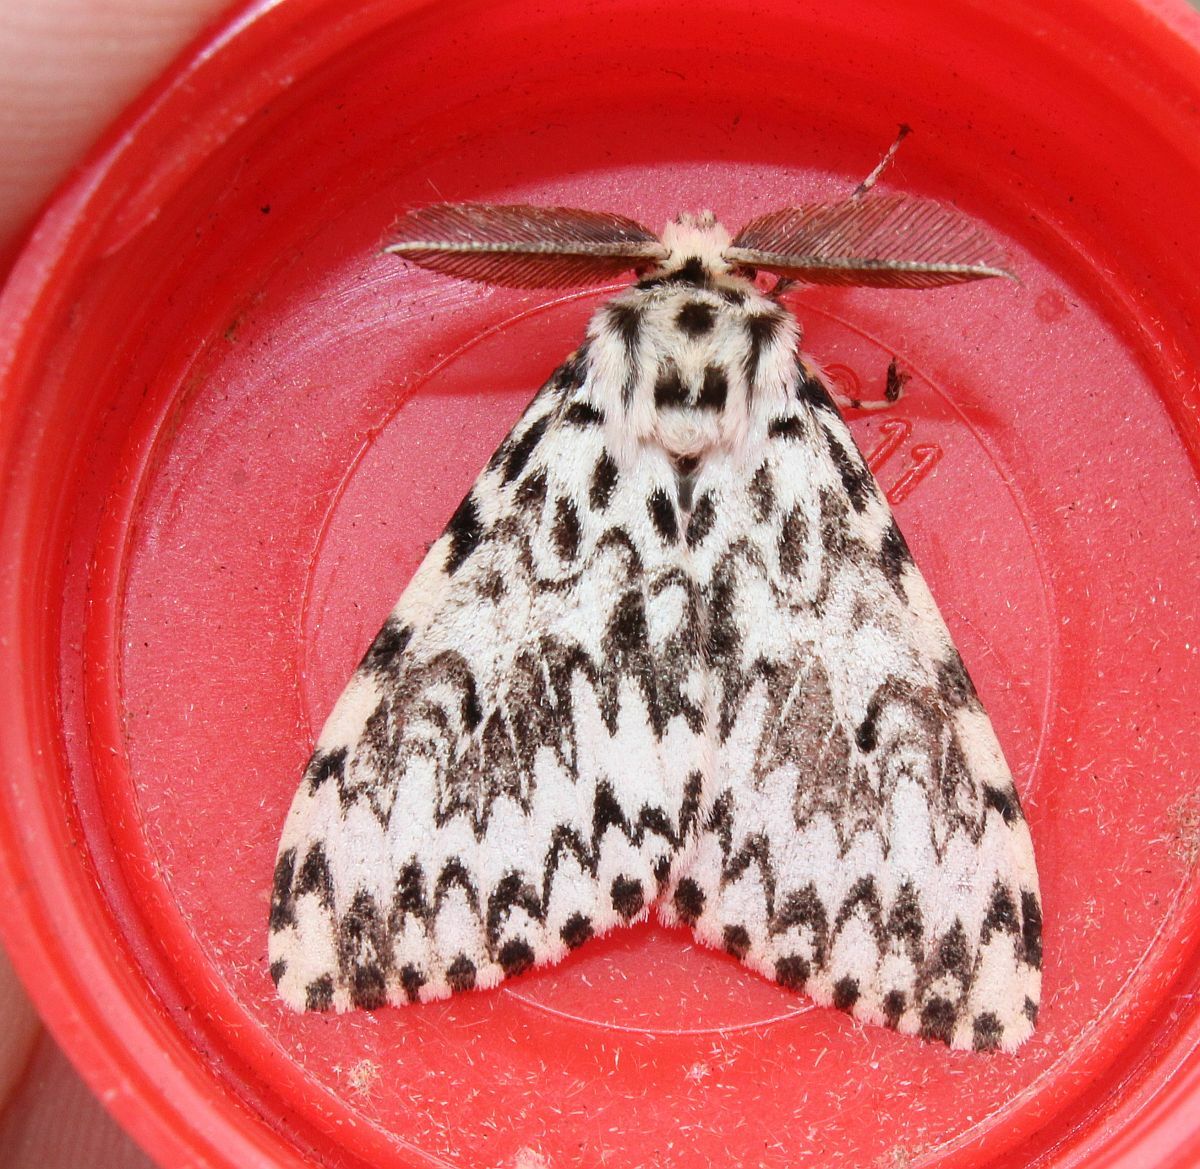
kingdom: Animalia
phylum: Arthropoda
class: Insecta
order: Lepidoptera
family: Erebidae
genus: Lymantria
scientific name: Lymantria monacha
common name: Black arches
